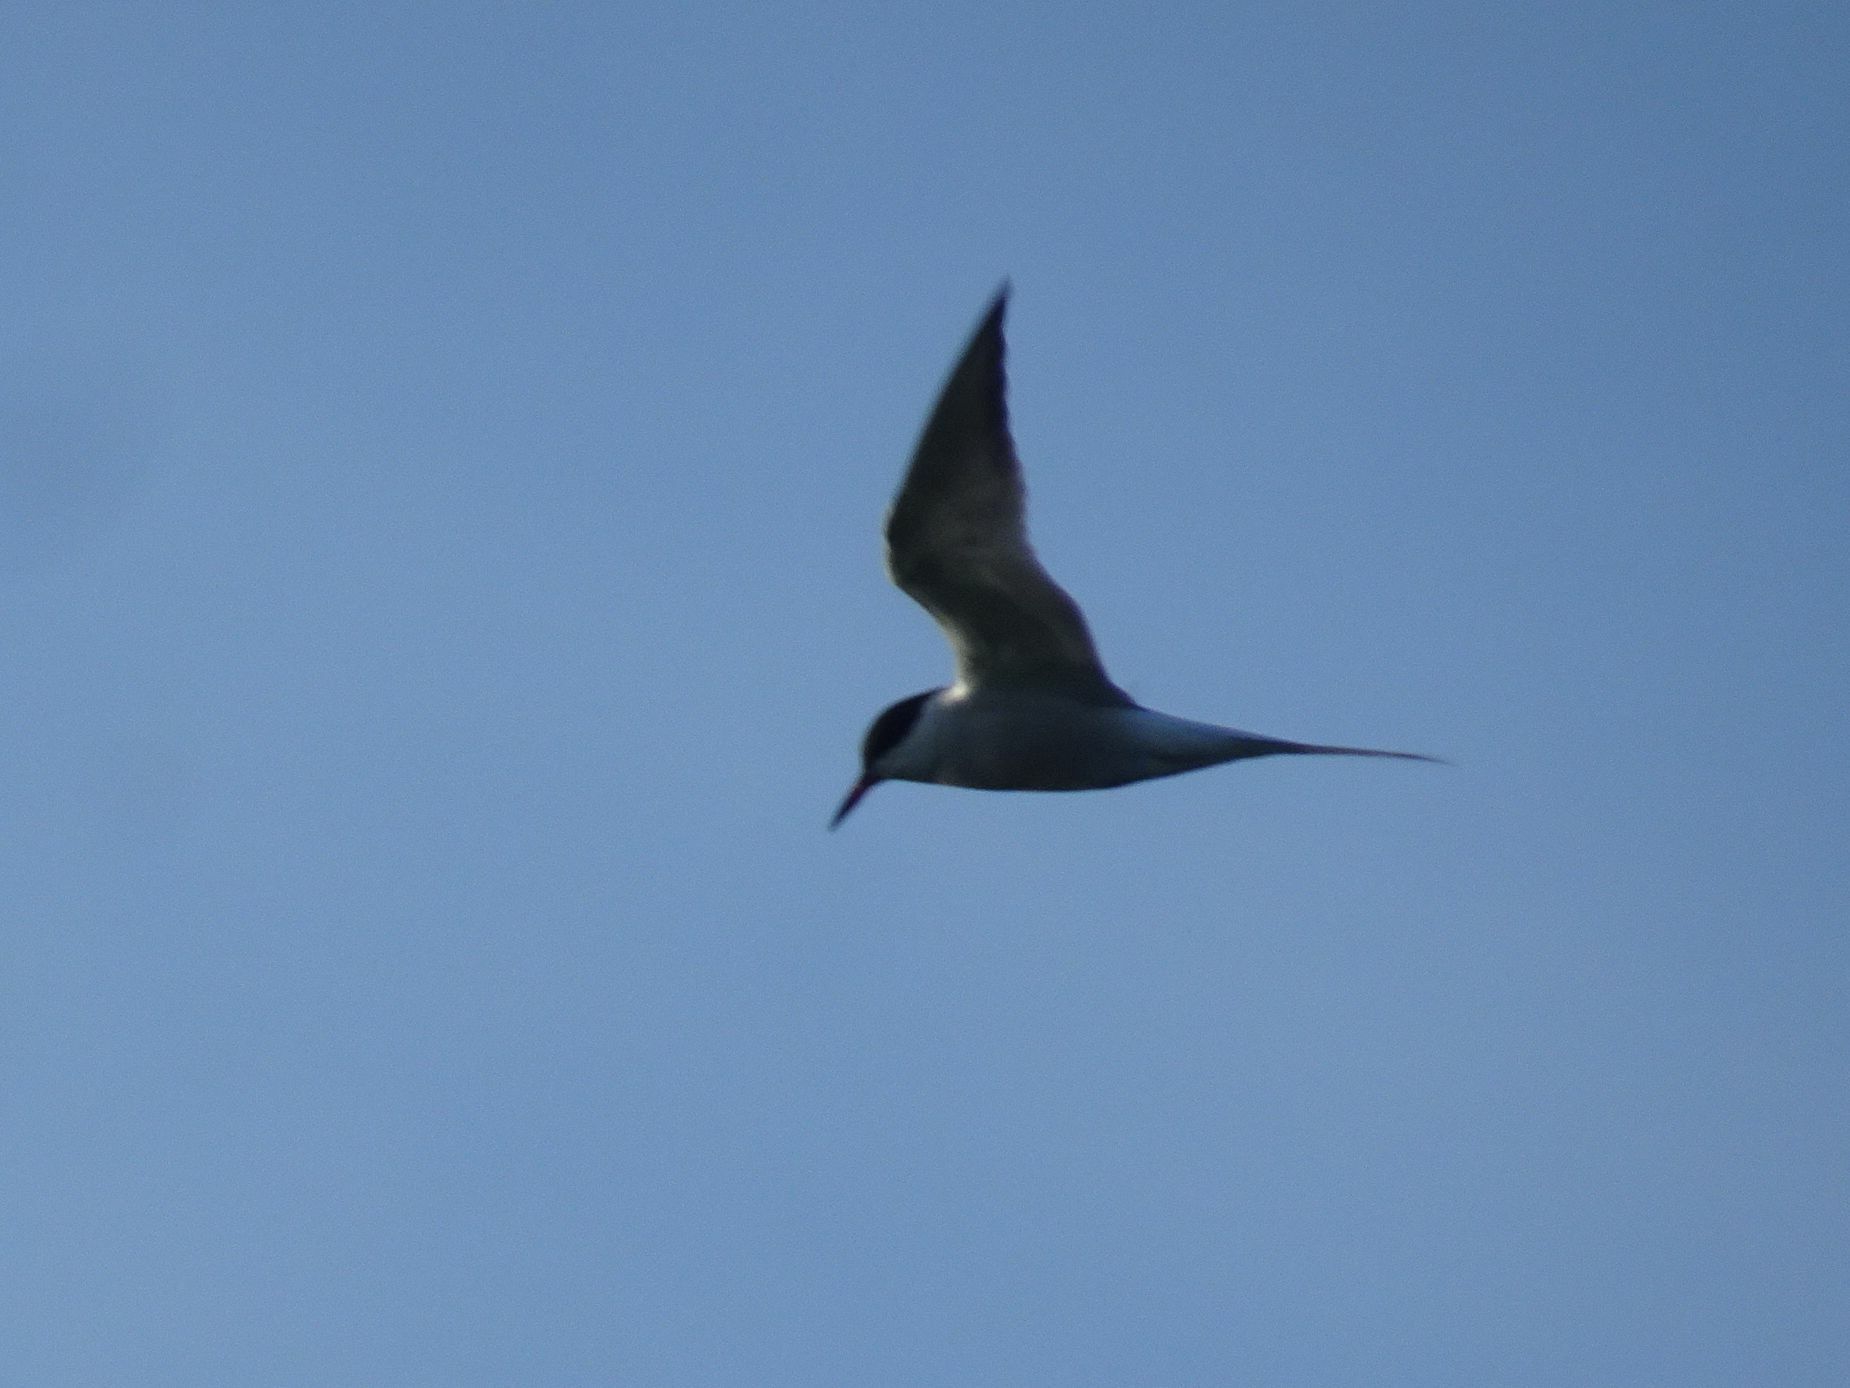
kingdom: Animalia
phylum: Chordata
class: Aves
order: Charadriiformes
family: Laridae
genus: Sterna
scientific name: Sterna hirundo
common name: Common tern
